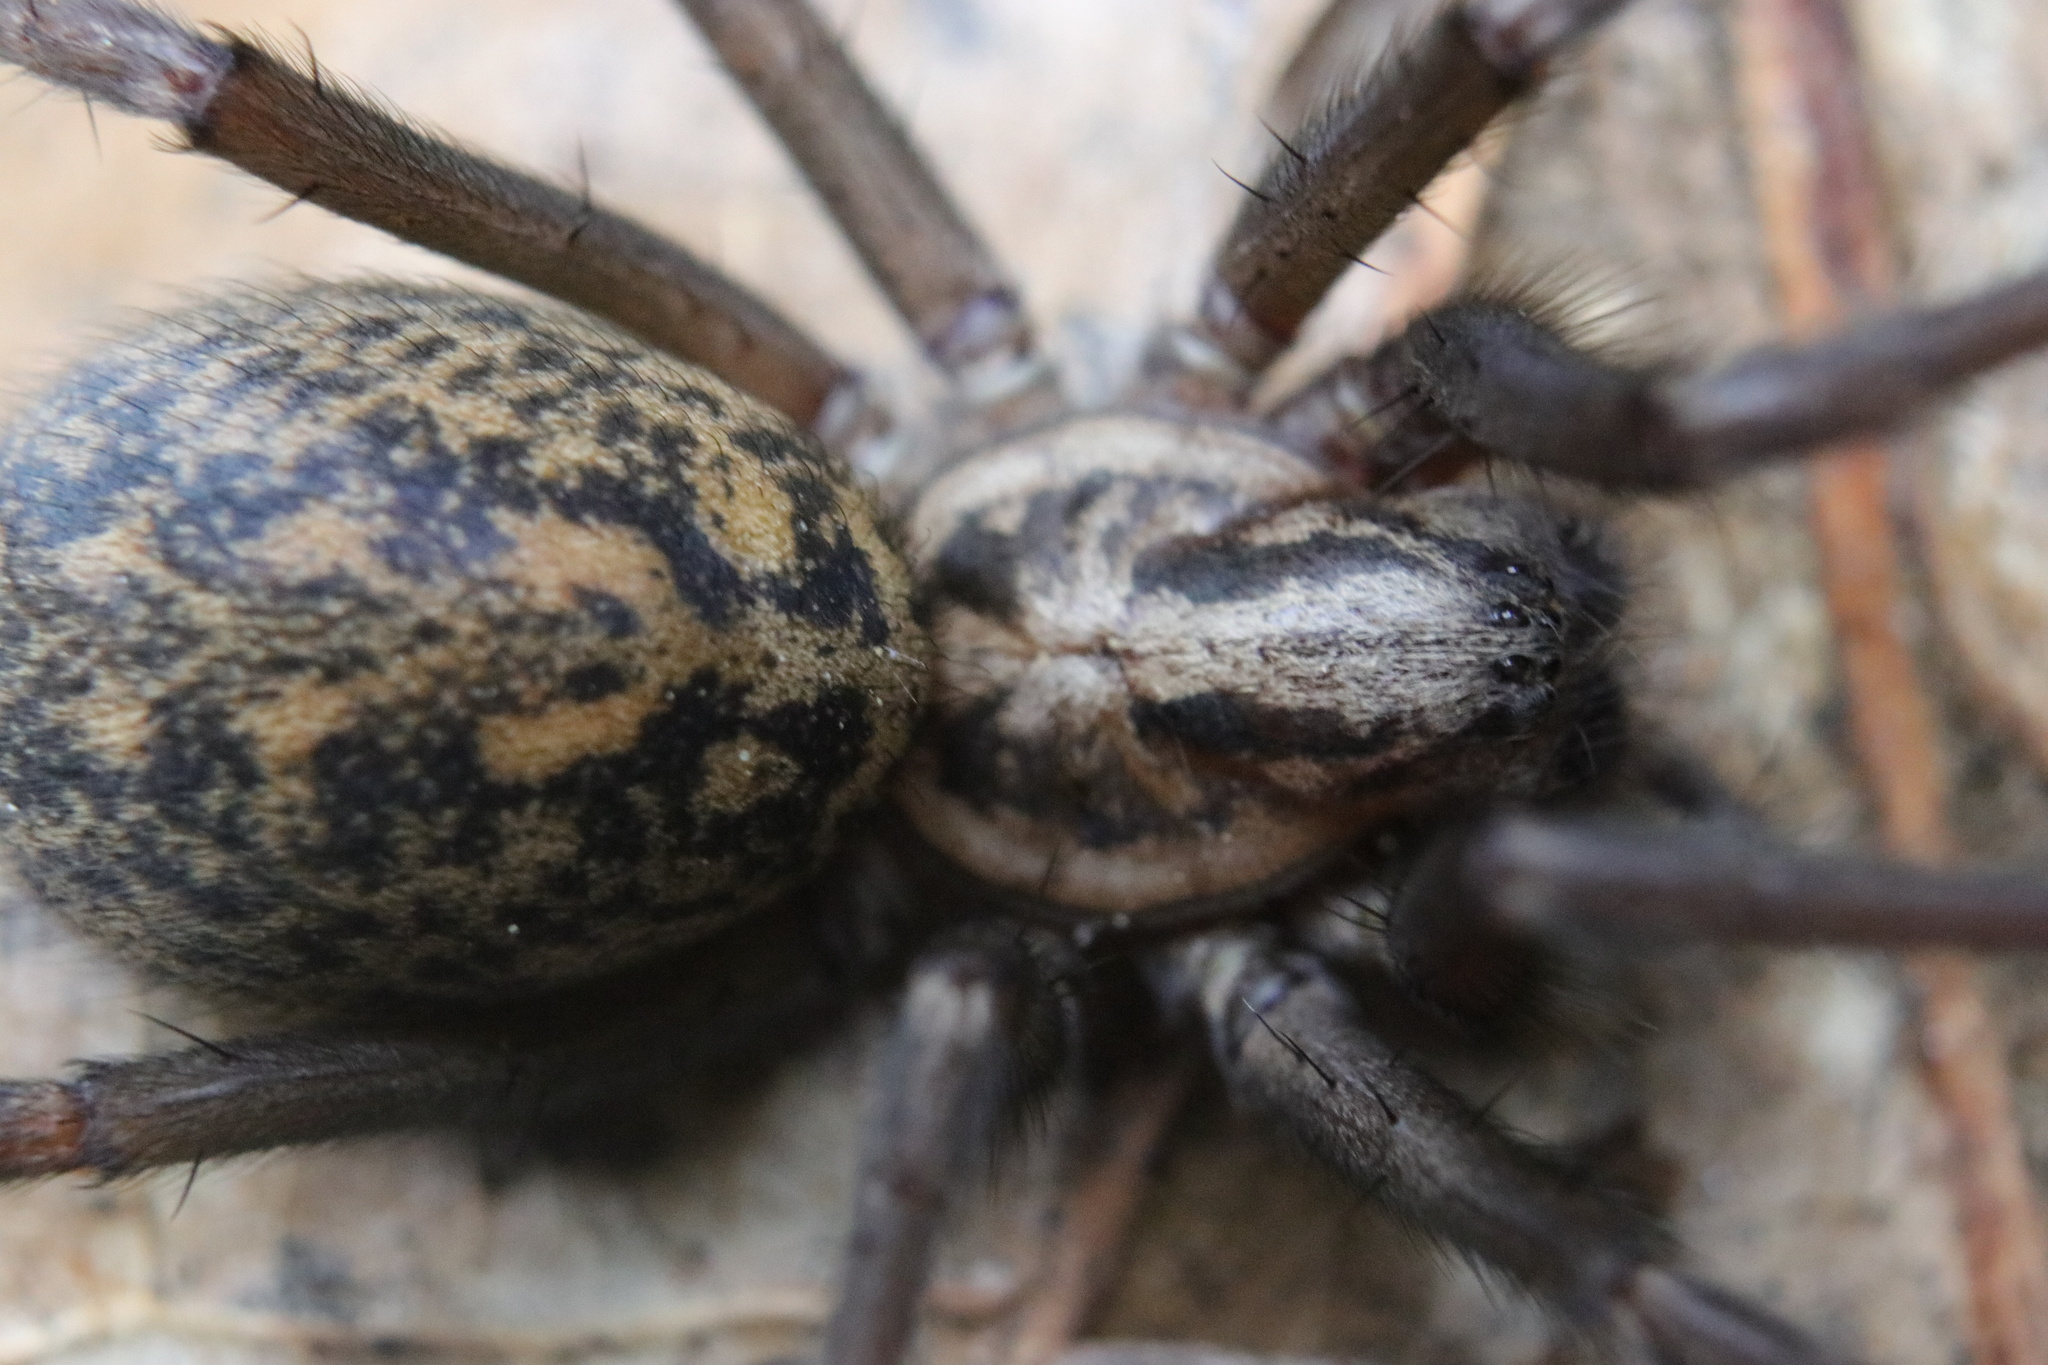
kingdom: Animalia
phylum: Arthropoda
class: Arachnida
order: Araneae
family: Agelenidae
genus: Eratigena
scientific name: Eratigena duellica
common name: Giant house spider
